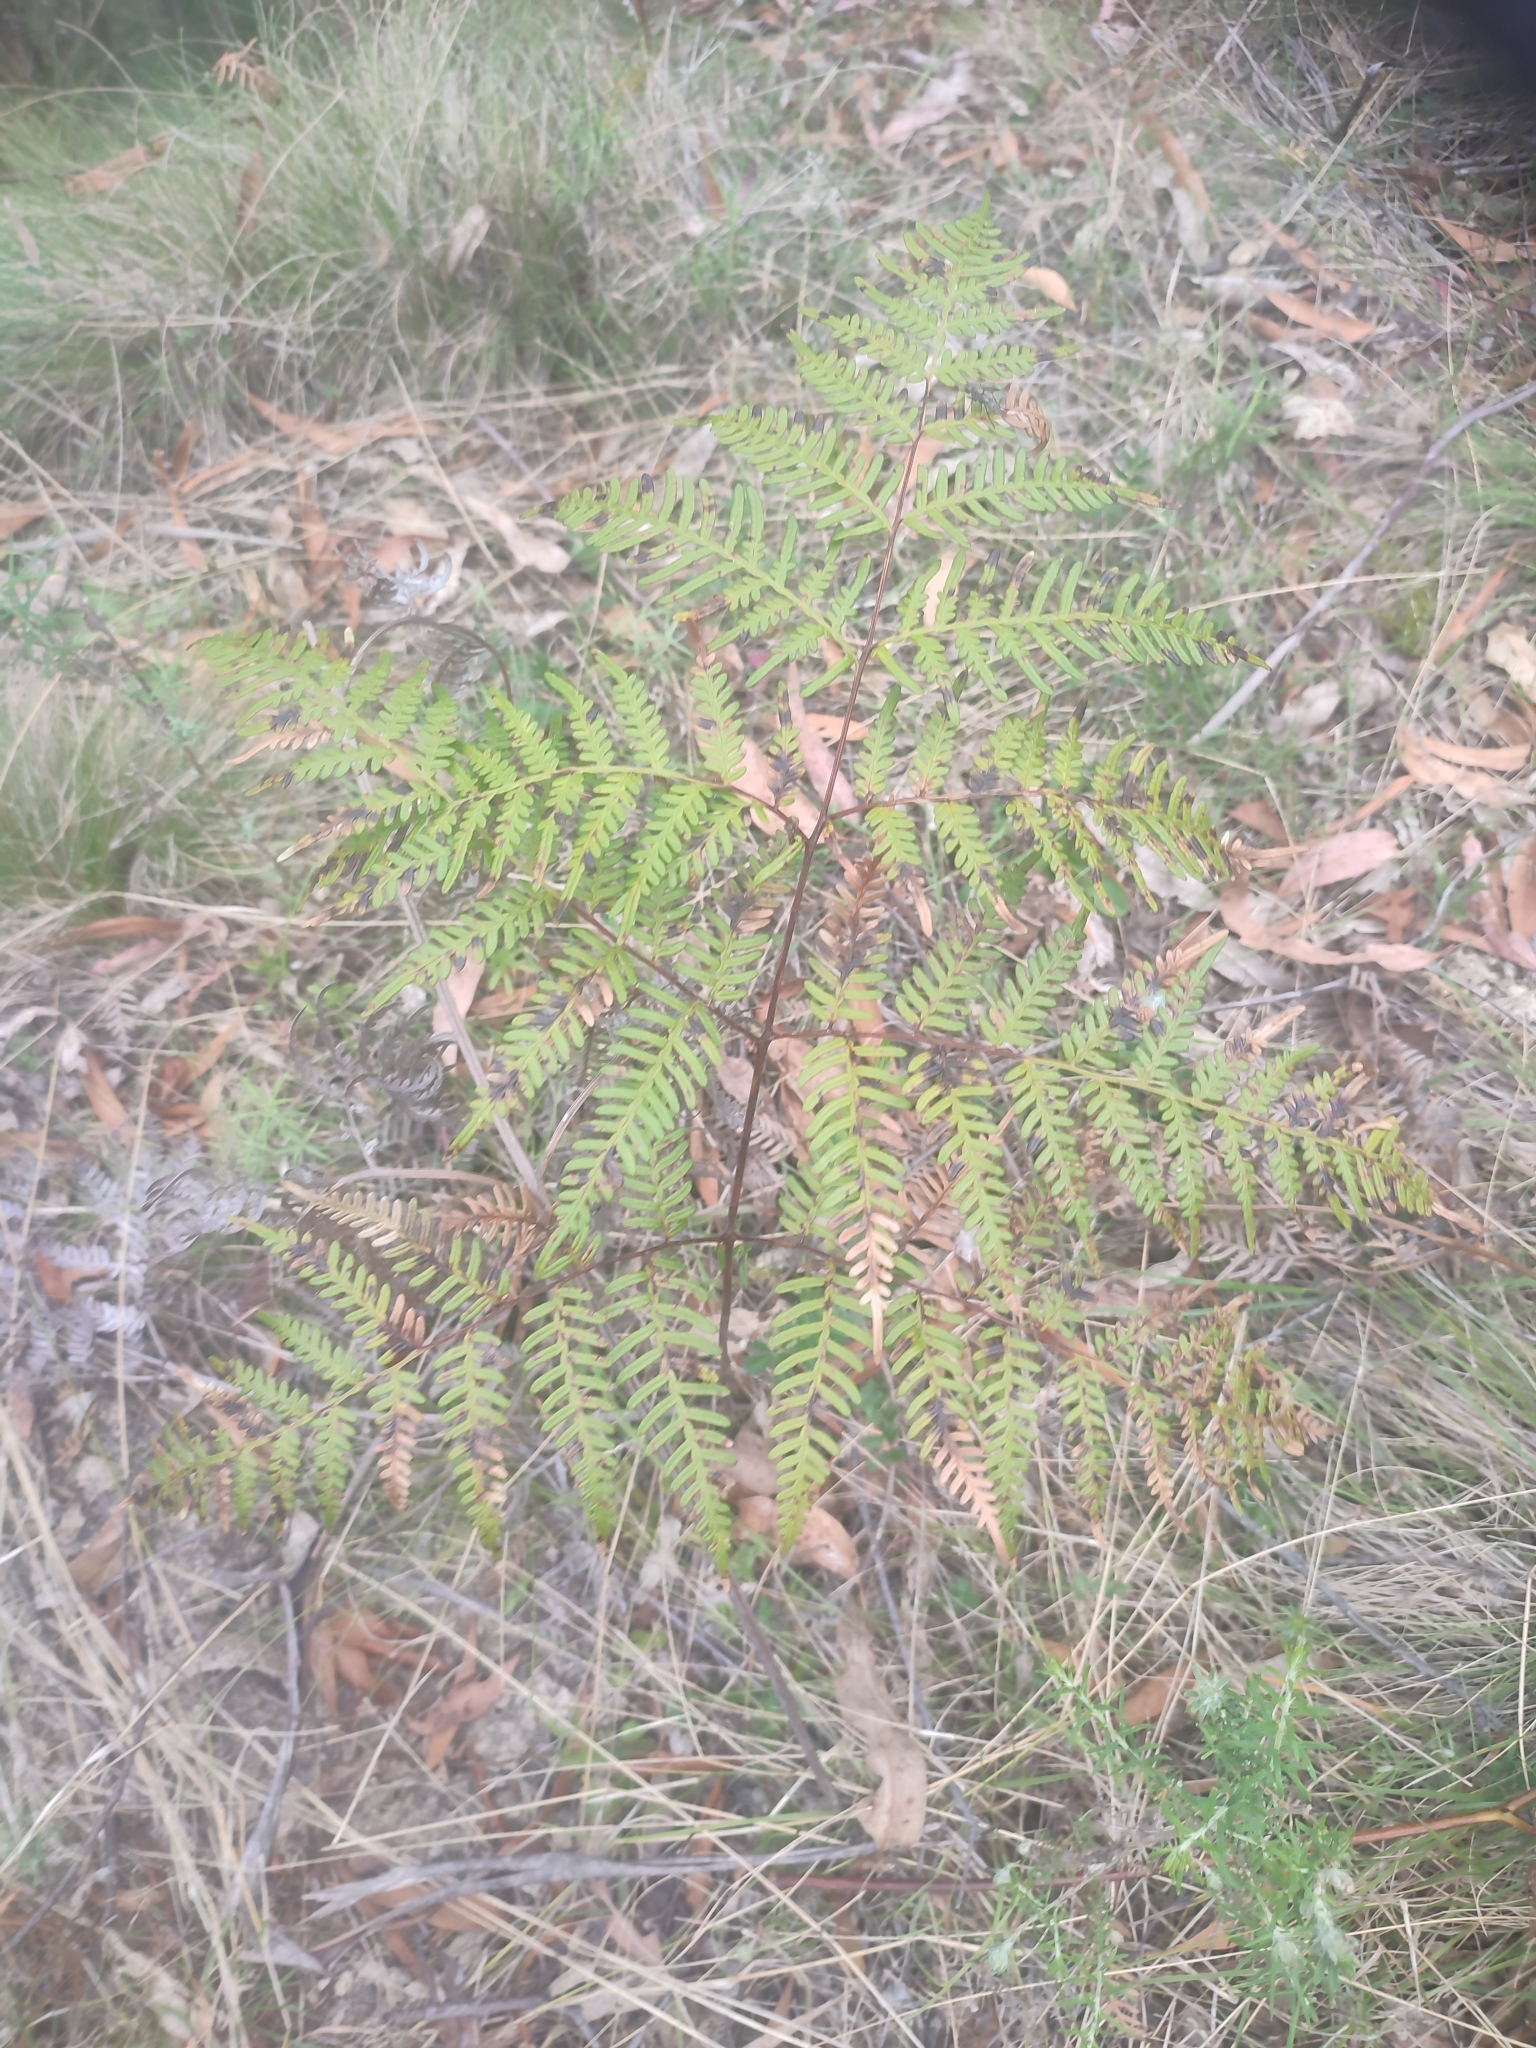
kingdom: Plantae
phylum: Tracheophyta
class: Polypodiopsida
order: Polypodiales
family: Dennstaedtiaceae
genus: Pteridium
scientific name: Pteridium esculentum
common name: Bracken fern
